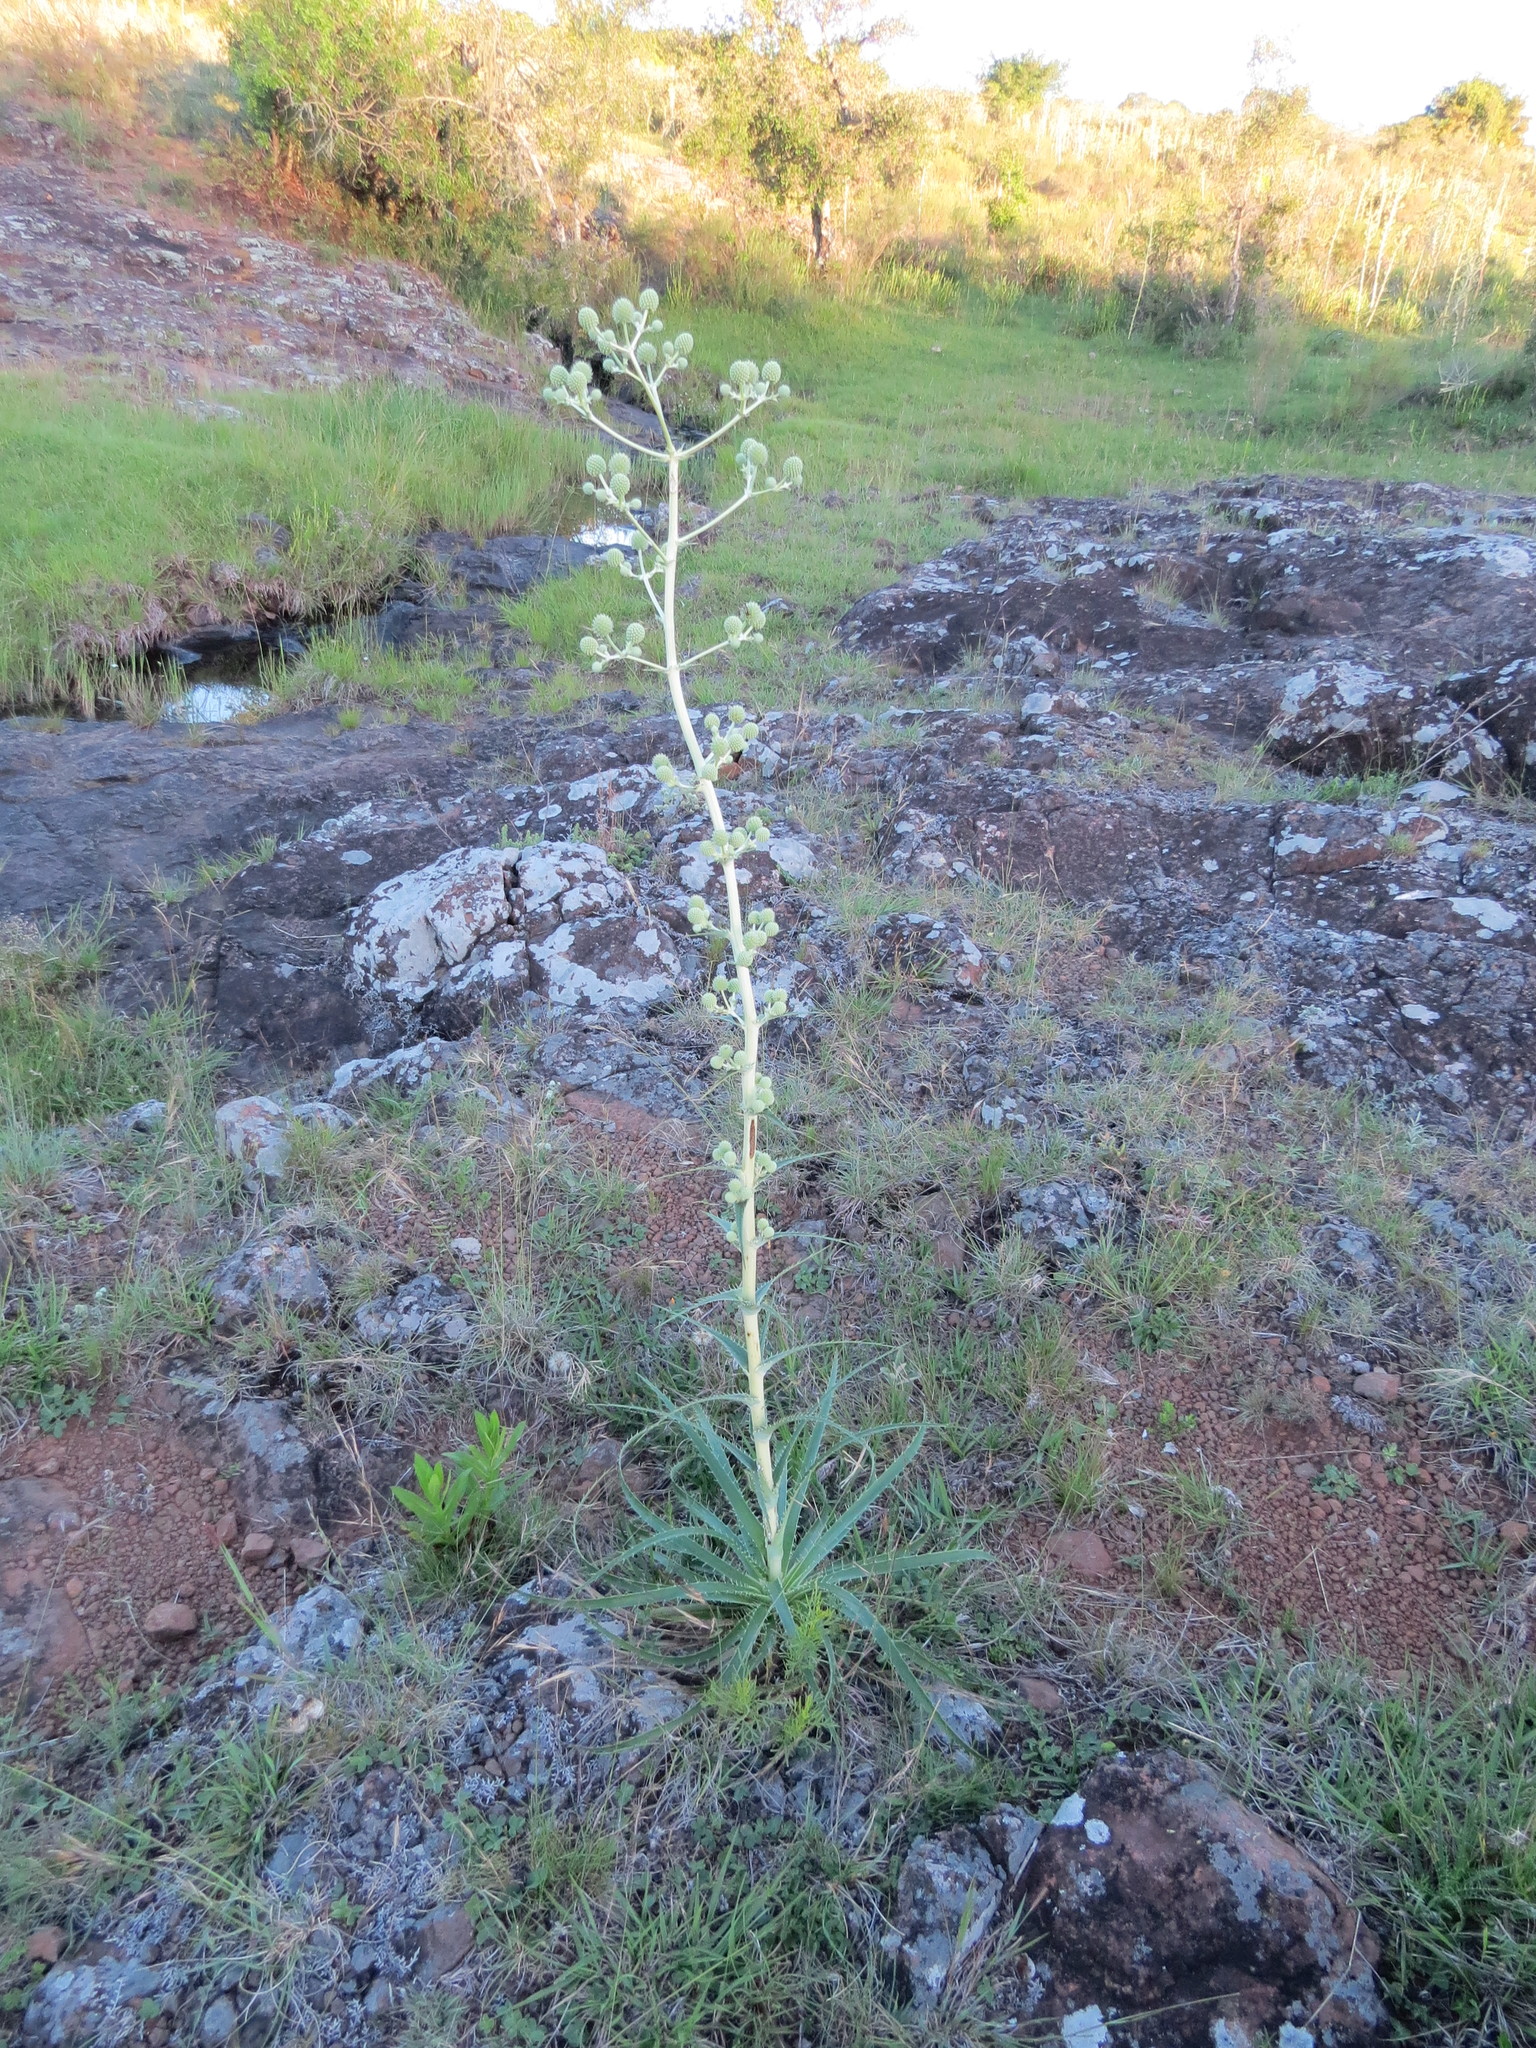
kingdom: Plantae
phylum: Tracheophyta
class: Magnoliopsida
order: Apiales
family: Apiaceae
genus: Eryngium
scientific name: Eryngium horridum
